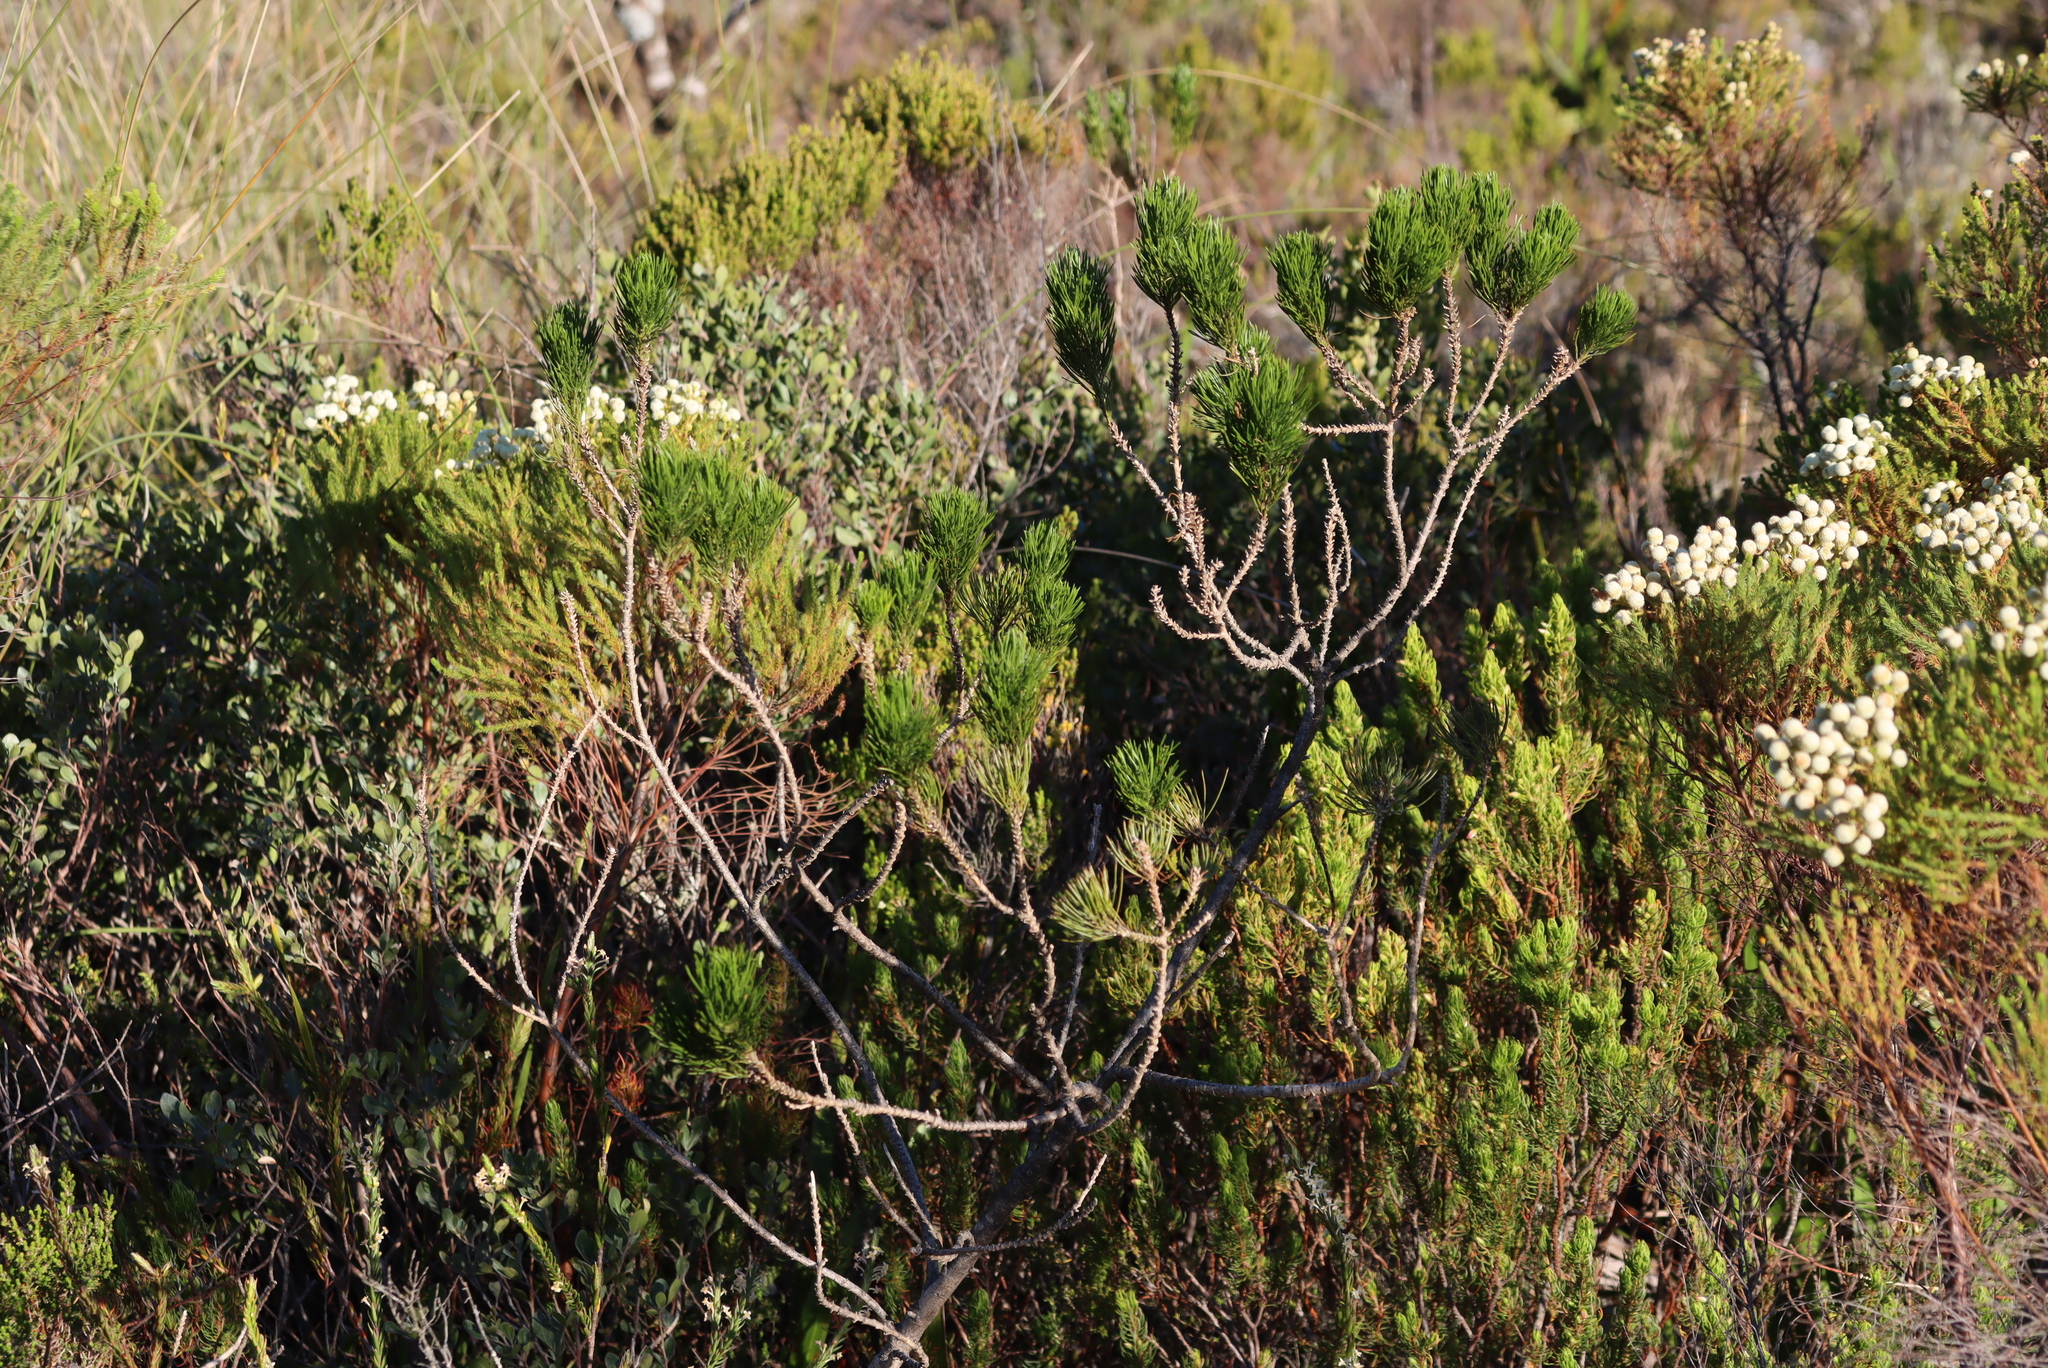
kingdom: Plantae
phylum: Tracheophyta
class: Magnoliopsida
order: Fabales
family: Fabaceae
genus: Psoralea
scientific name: Psoralea pinnata
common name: African scurfpea
